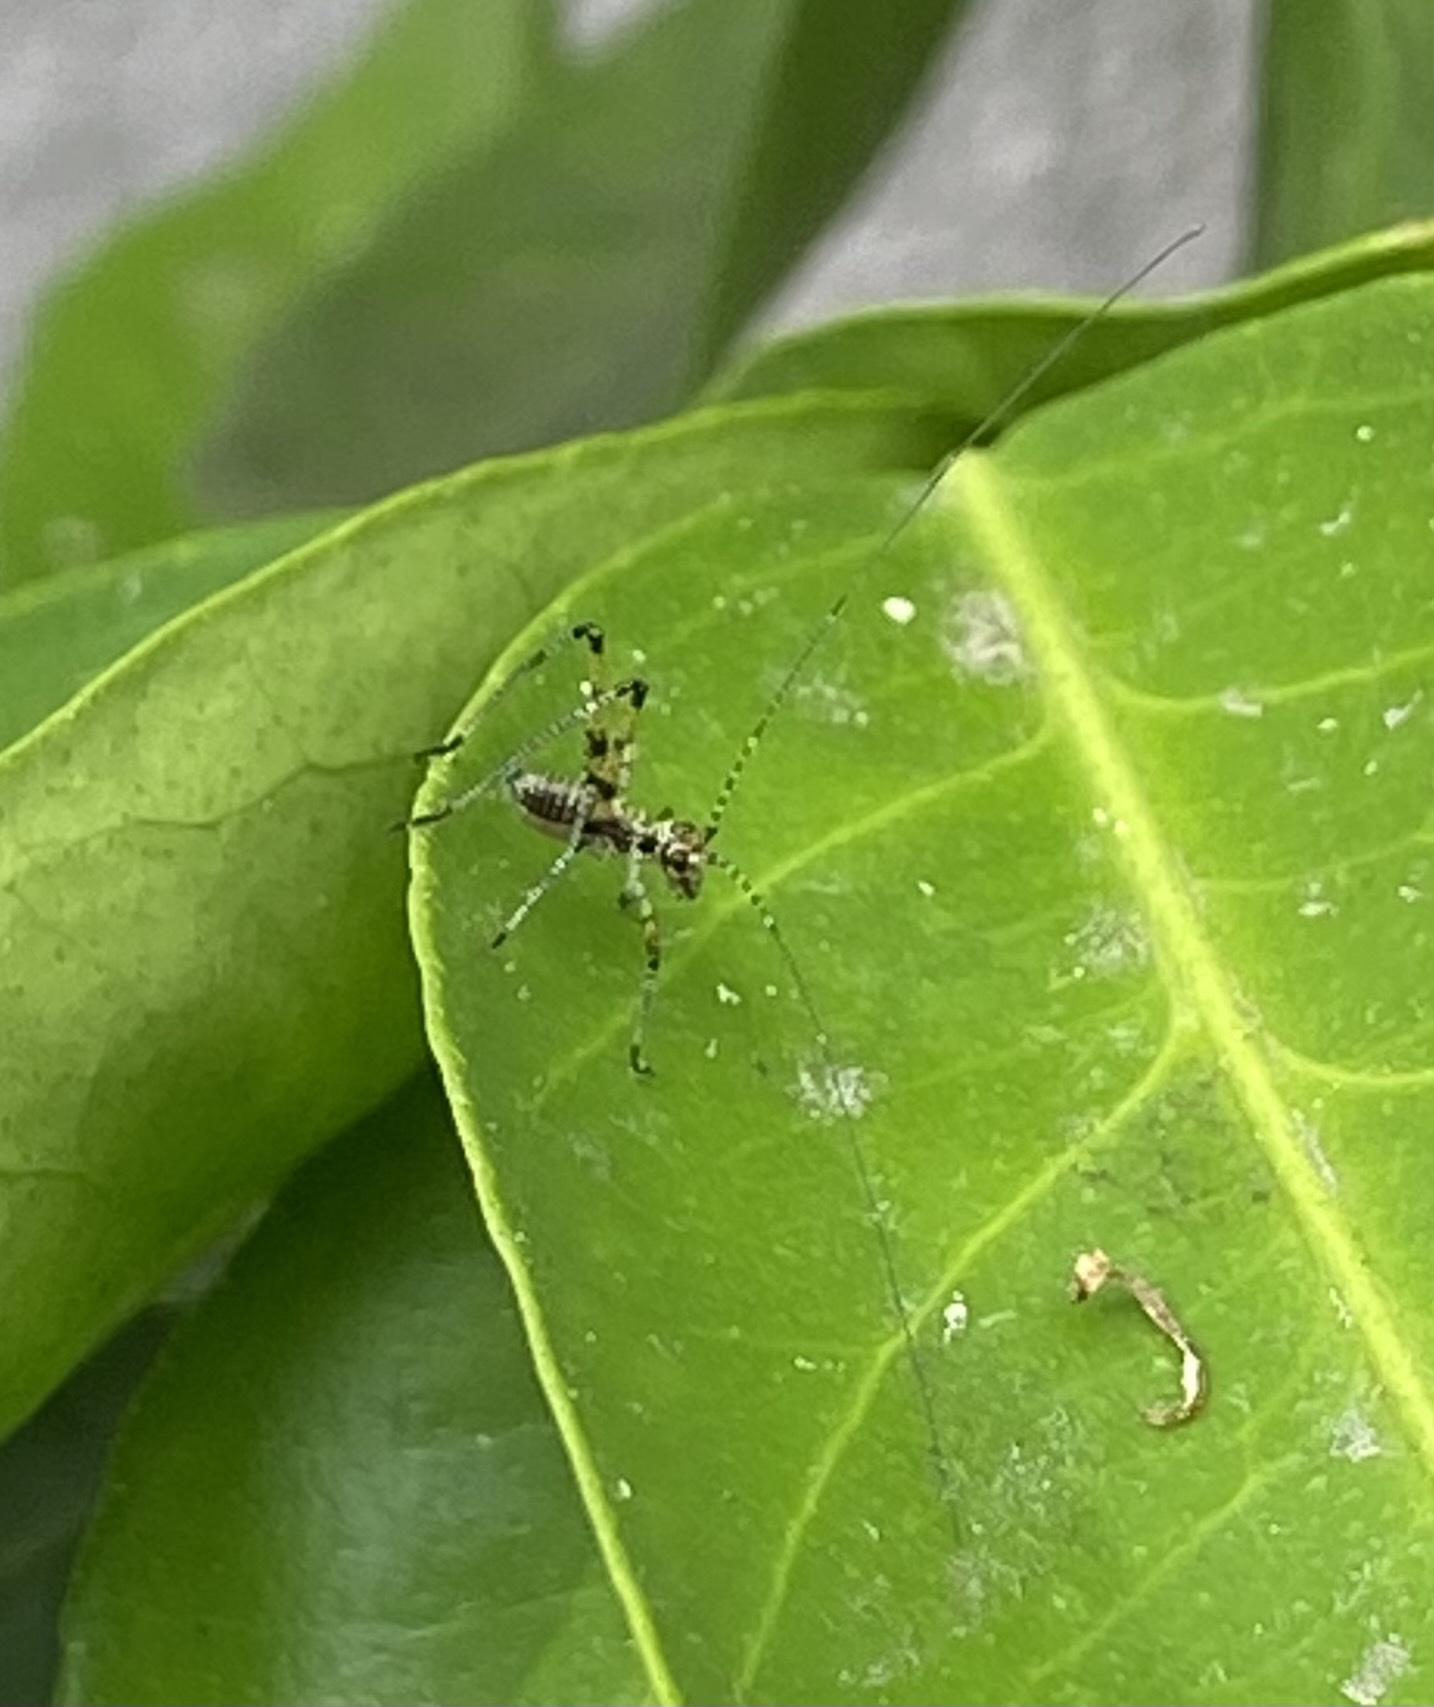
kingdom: Animalia
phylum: Arthropoda
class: Insecta
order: Orthoptera
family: Tettigoniidae
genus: Phaneroptera
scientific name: Phaneroptera nana
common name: Southern sickle bush-cricket
